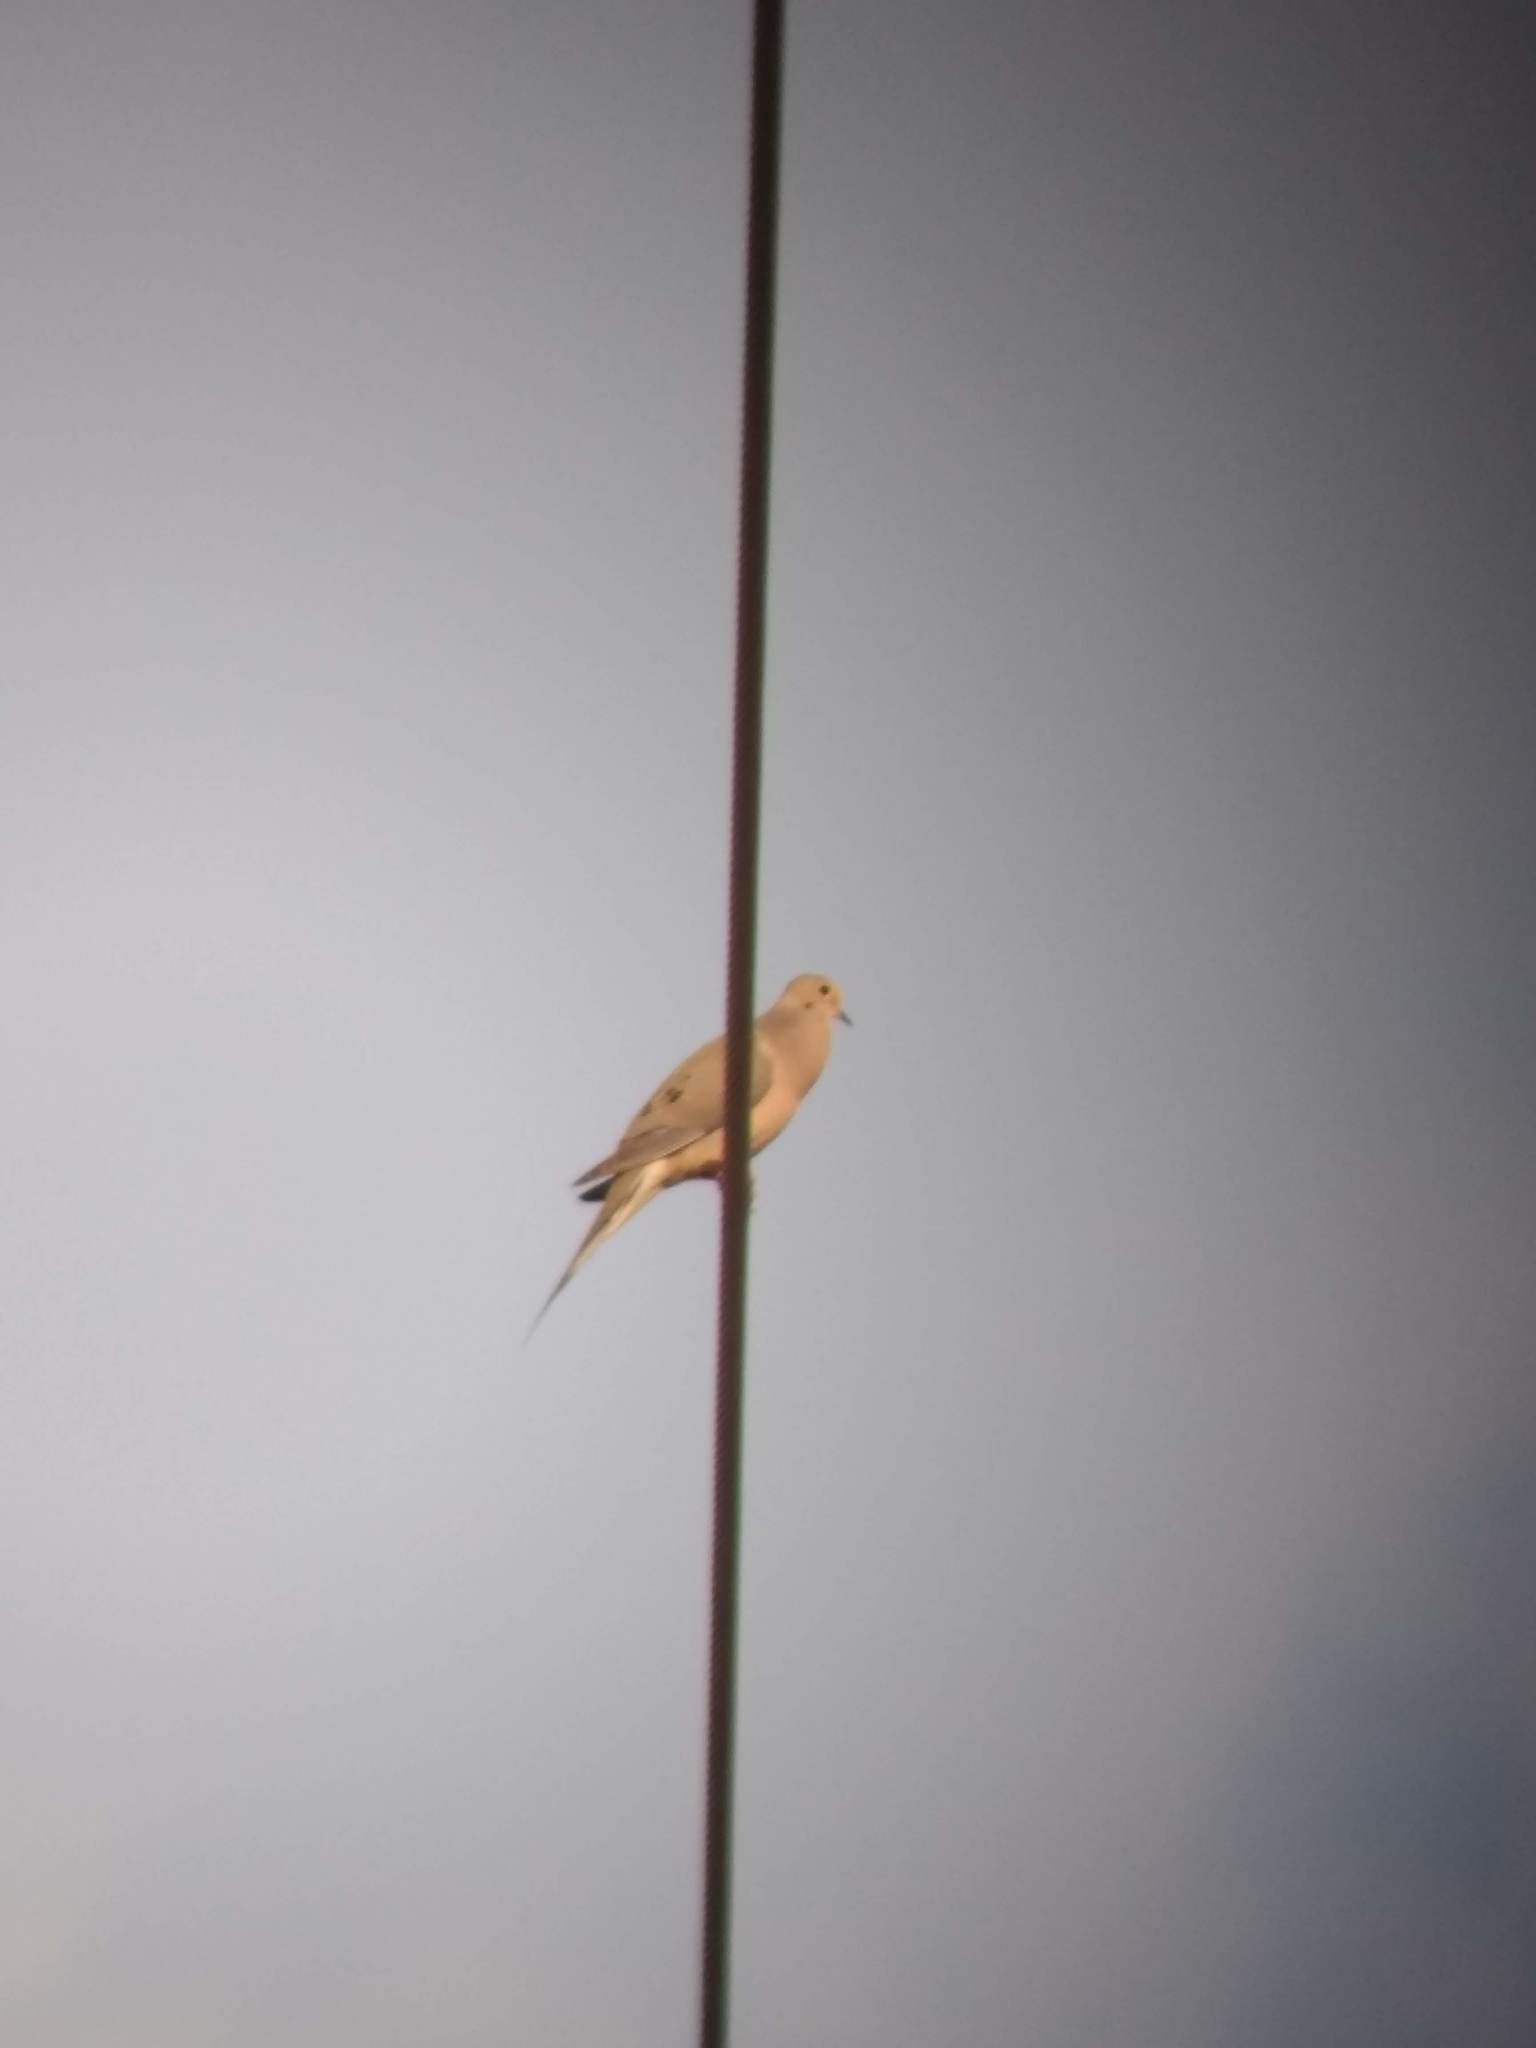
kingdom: Animalia
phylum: Chordata
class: Aves
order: Columbiformes
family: Columbidae
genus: Zenaida
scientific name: Zenaida macroura
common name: Mourning dove
